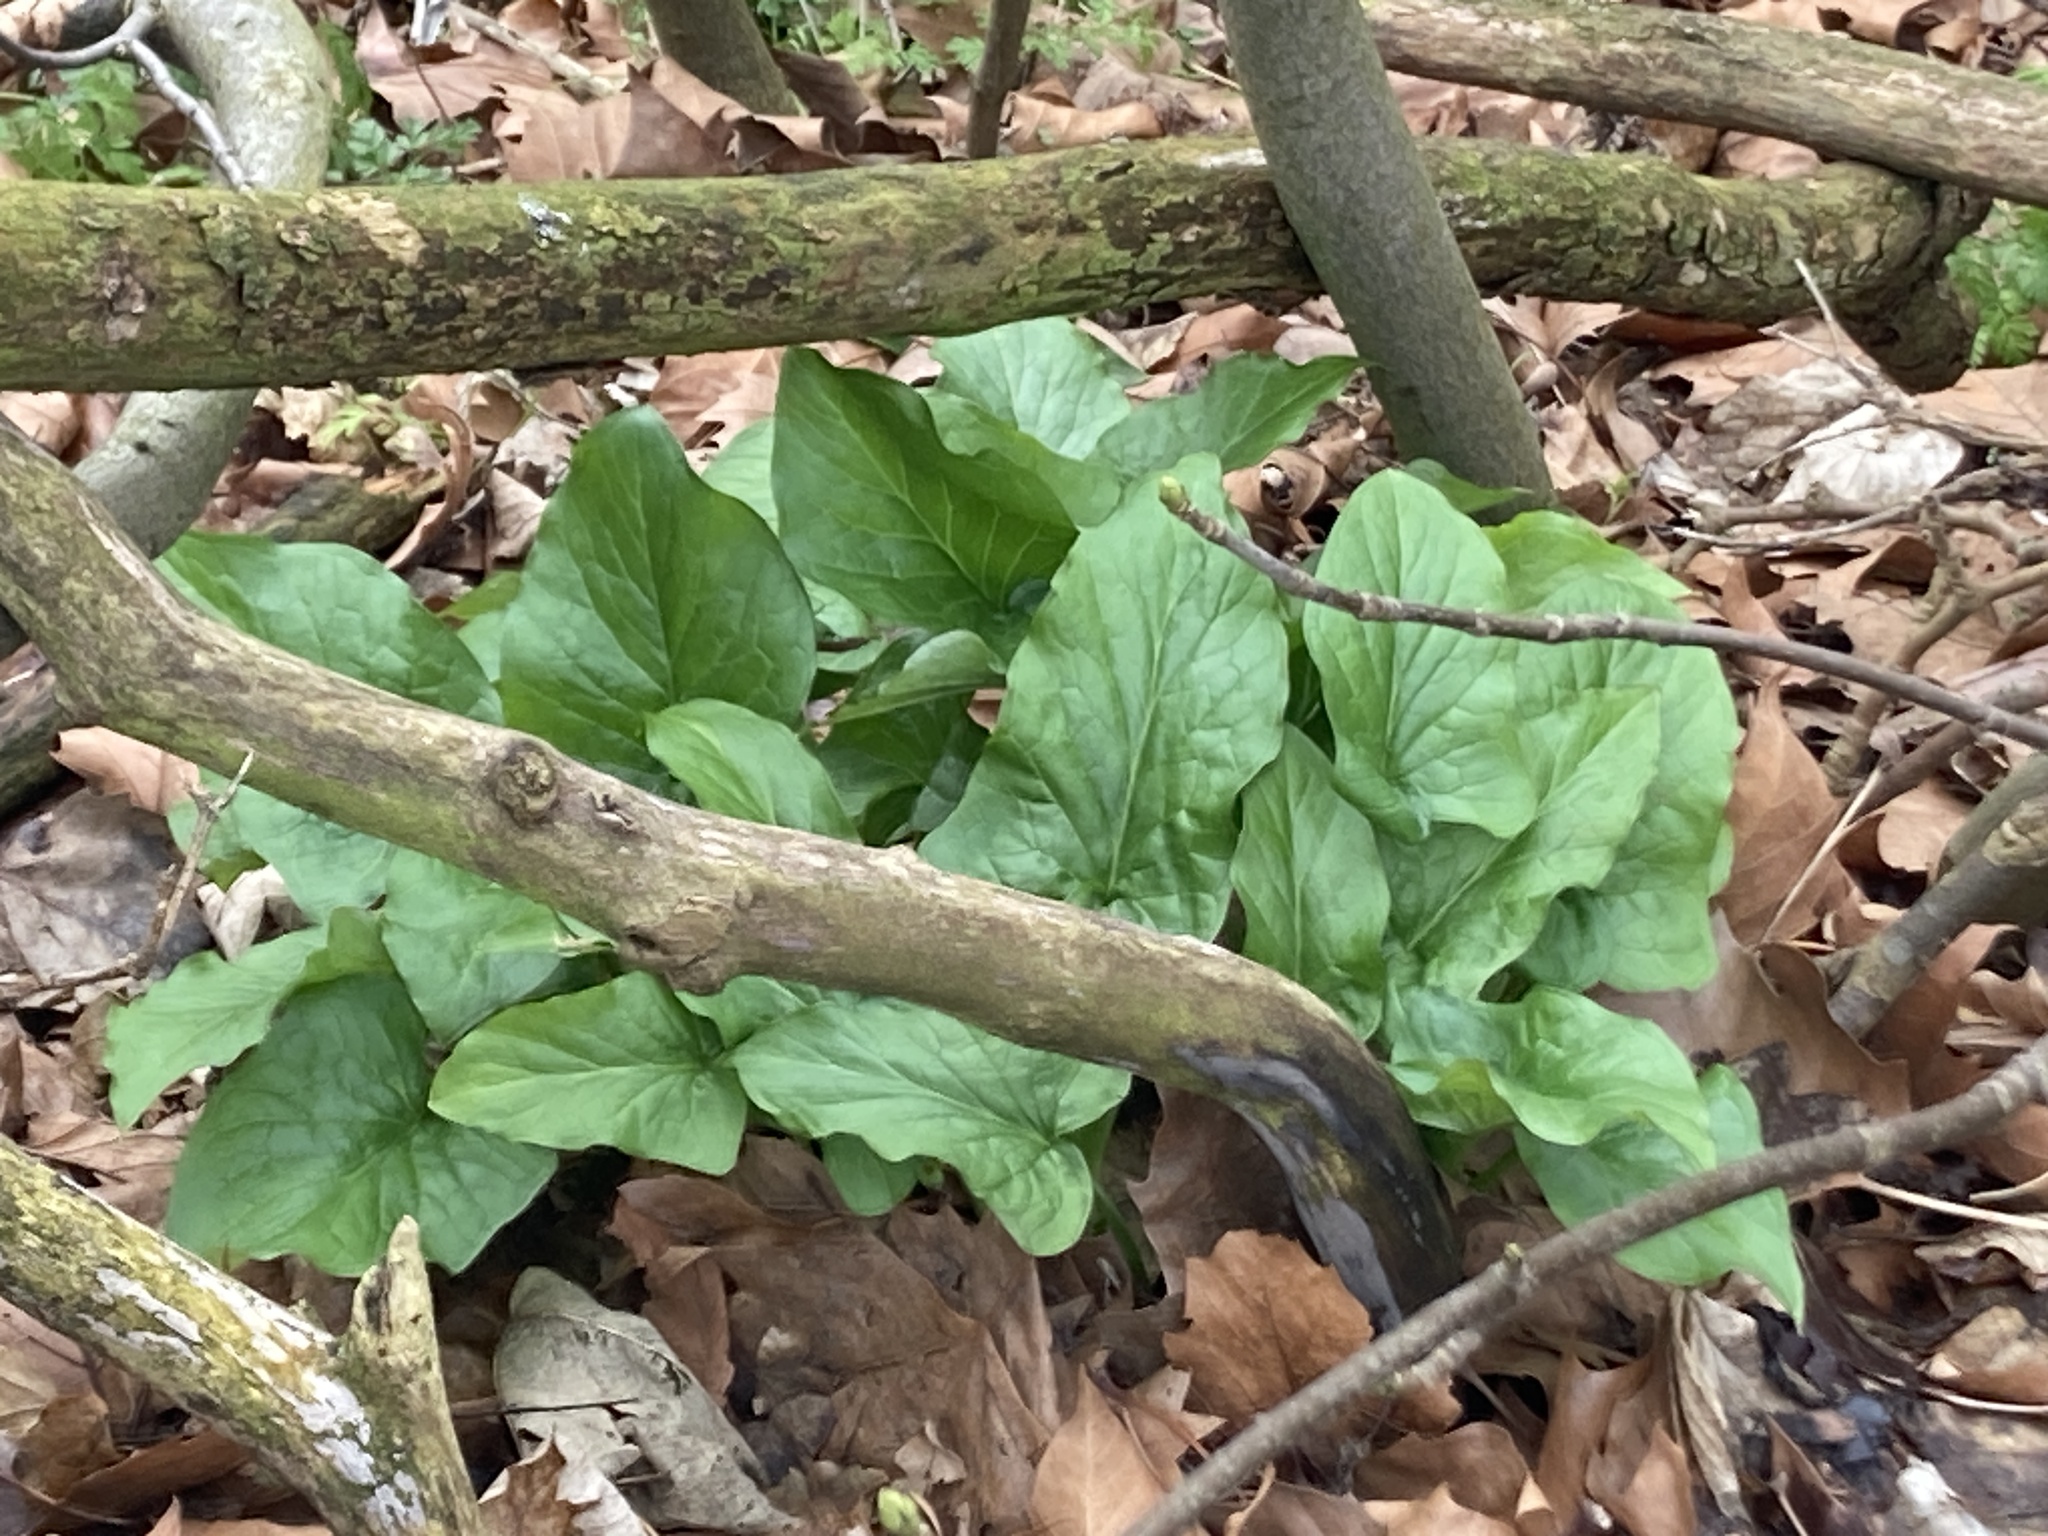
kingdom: Plantae
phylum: Tracheophyta
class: Liliopsida
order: Alismatales
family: Araceae
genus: Arum
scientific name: Arum maculatum
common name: Lords-and-ladies
